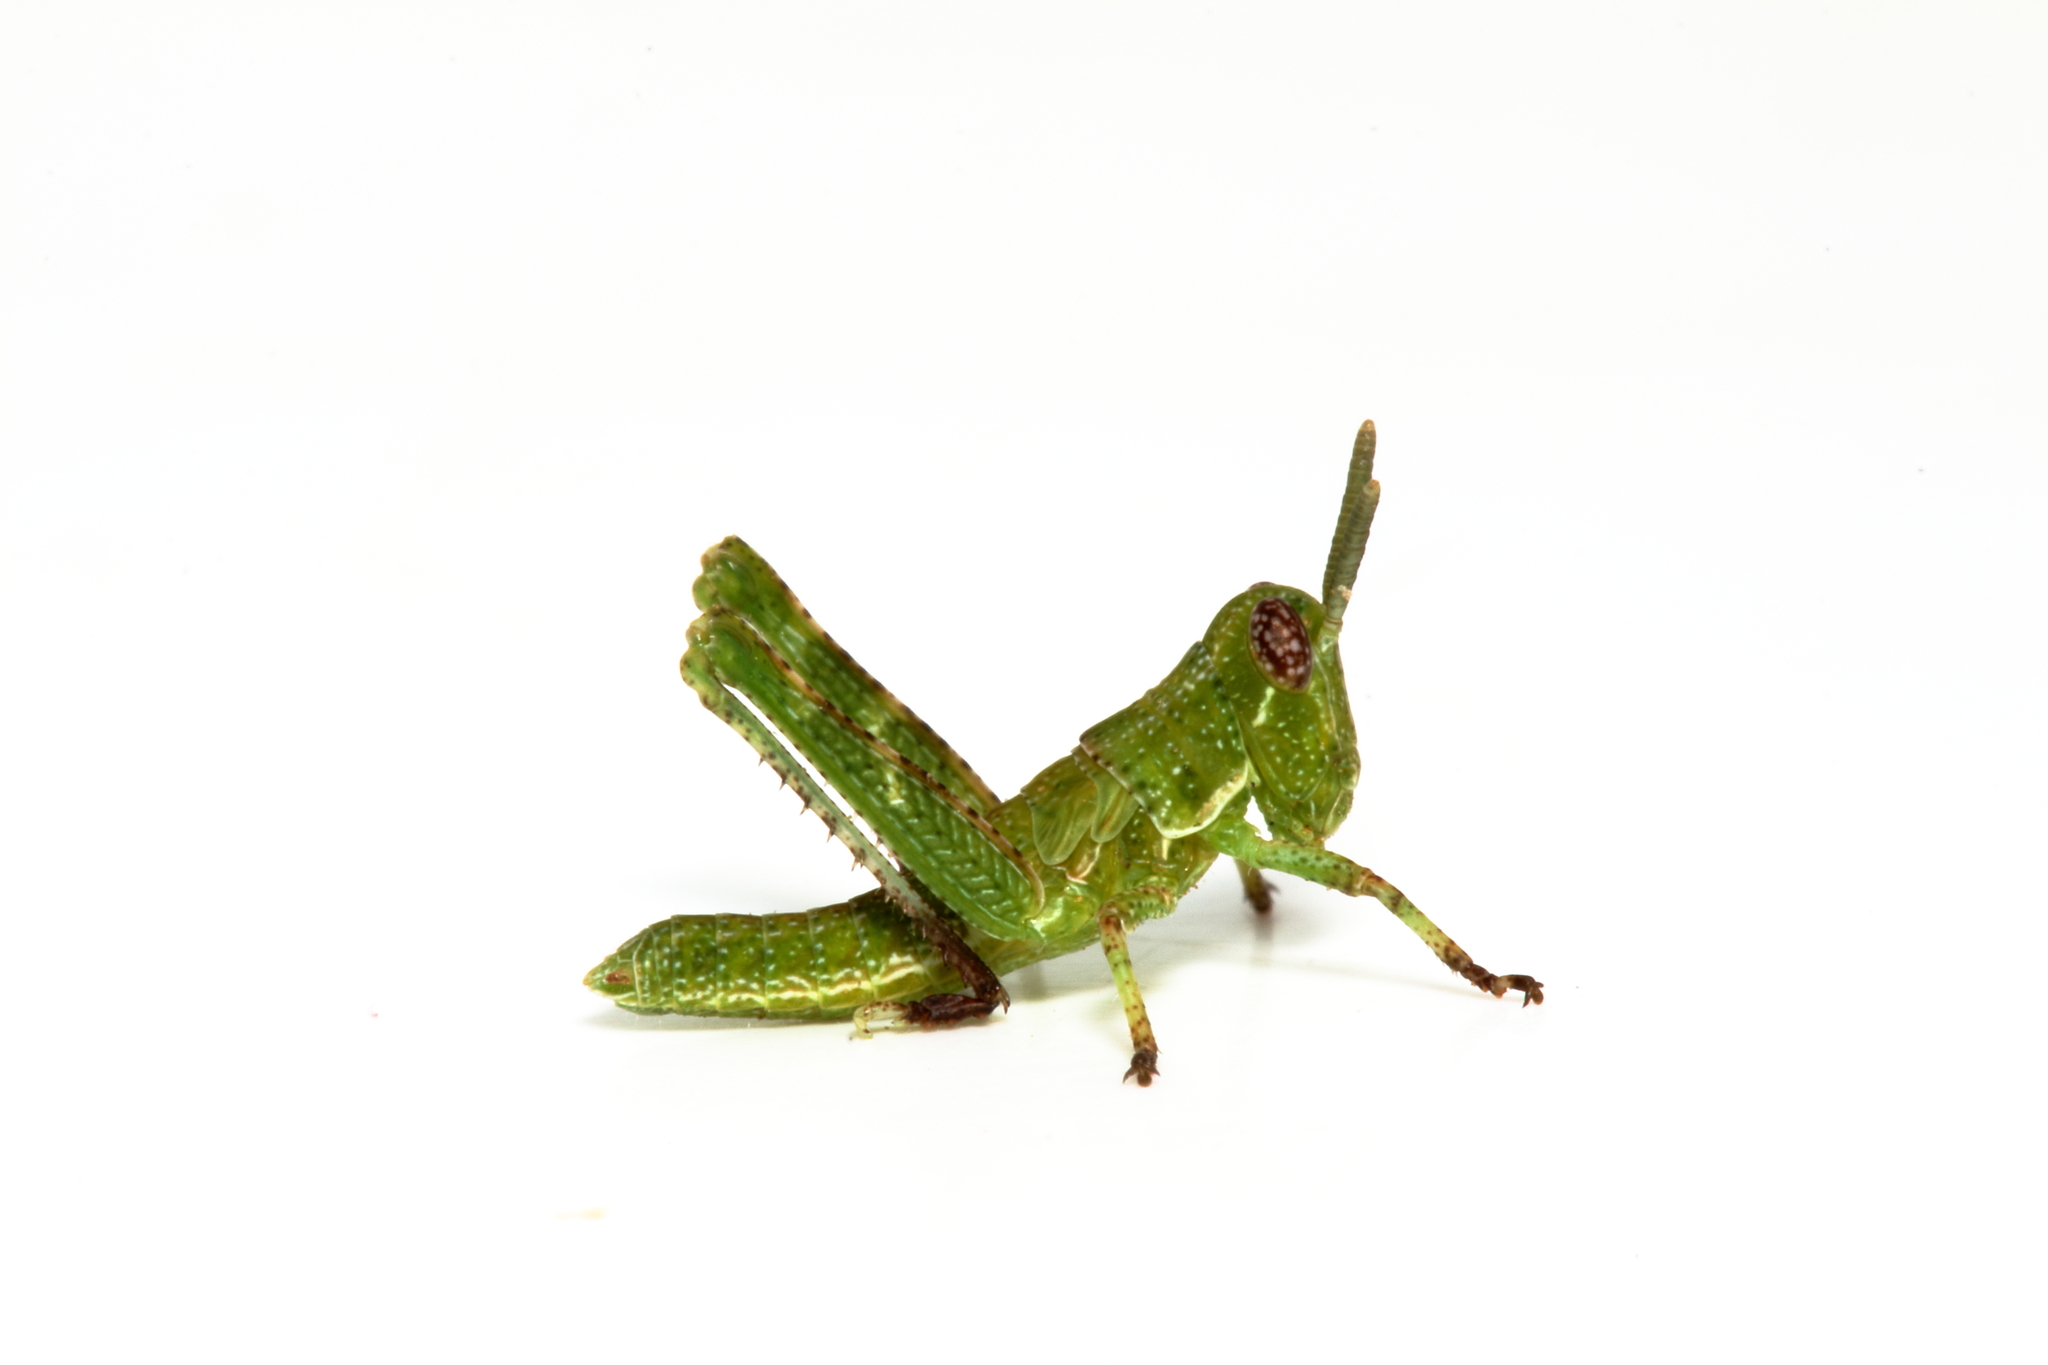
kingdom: Animalia
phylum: Arthropoda
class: Insecta
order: Orthoptera
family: Acrididae
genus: Histrioacrida
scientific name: Histrioacrida roseipennis
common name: Halgania grasshopper
